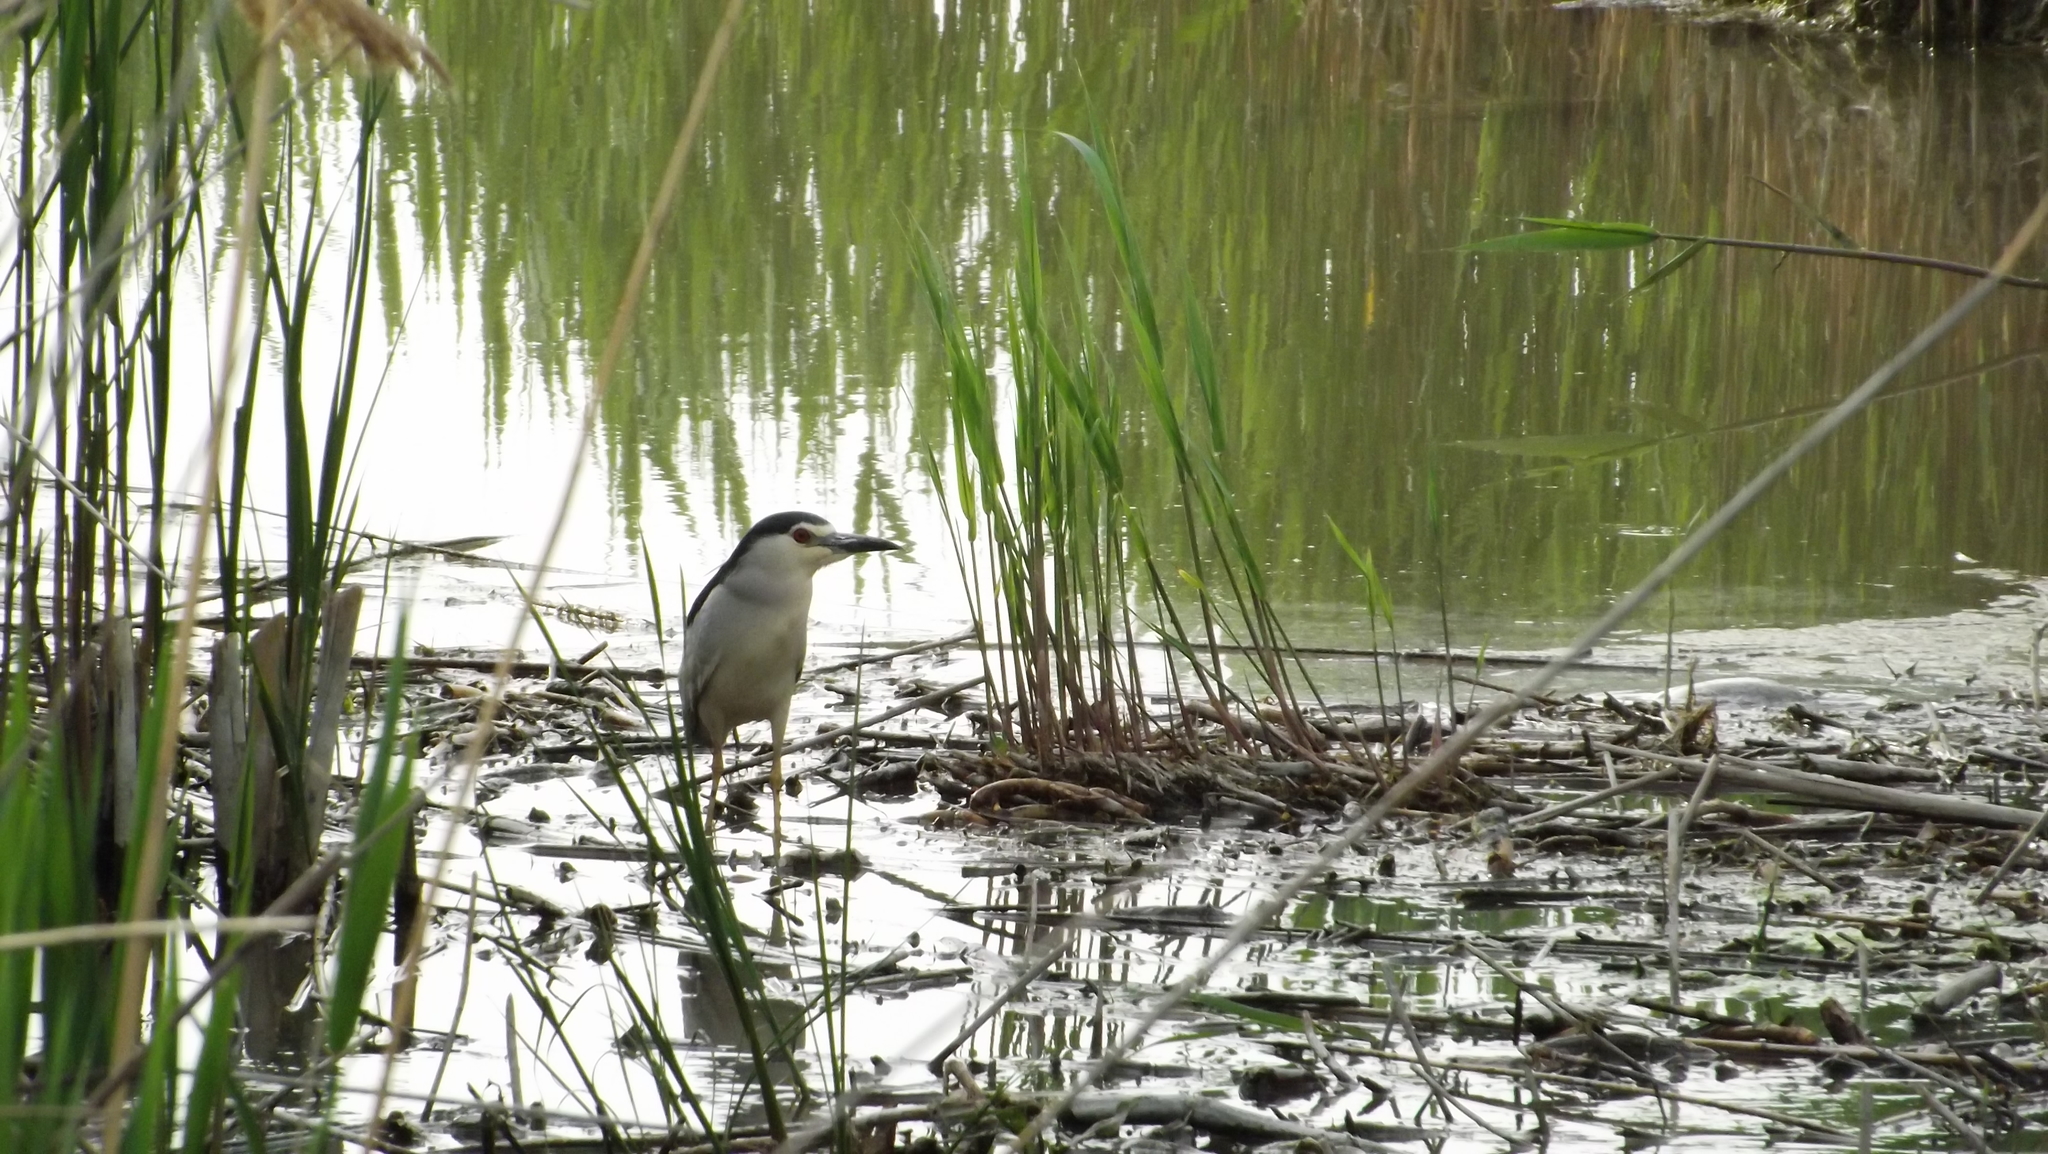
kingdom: Animalia
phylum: Chordata
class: Aves
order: Pelecaniformes
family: Ardeidae
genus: Nycticorax
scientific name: Nycticorax nycticorax
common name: Black-crowned night heron
